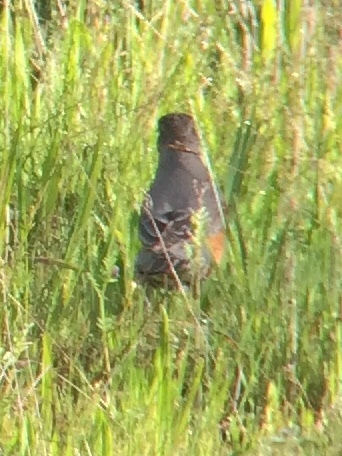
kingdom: Animalia
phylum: Chordata
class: Aves
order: Passeriformes
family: Turdidae
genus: Turdus
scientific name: Turdus migratorius
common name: American robin
